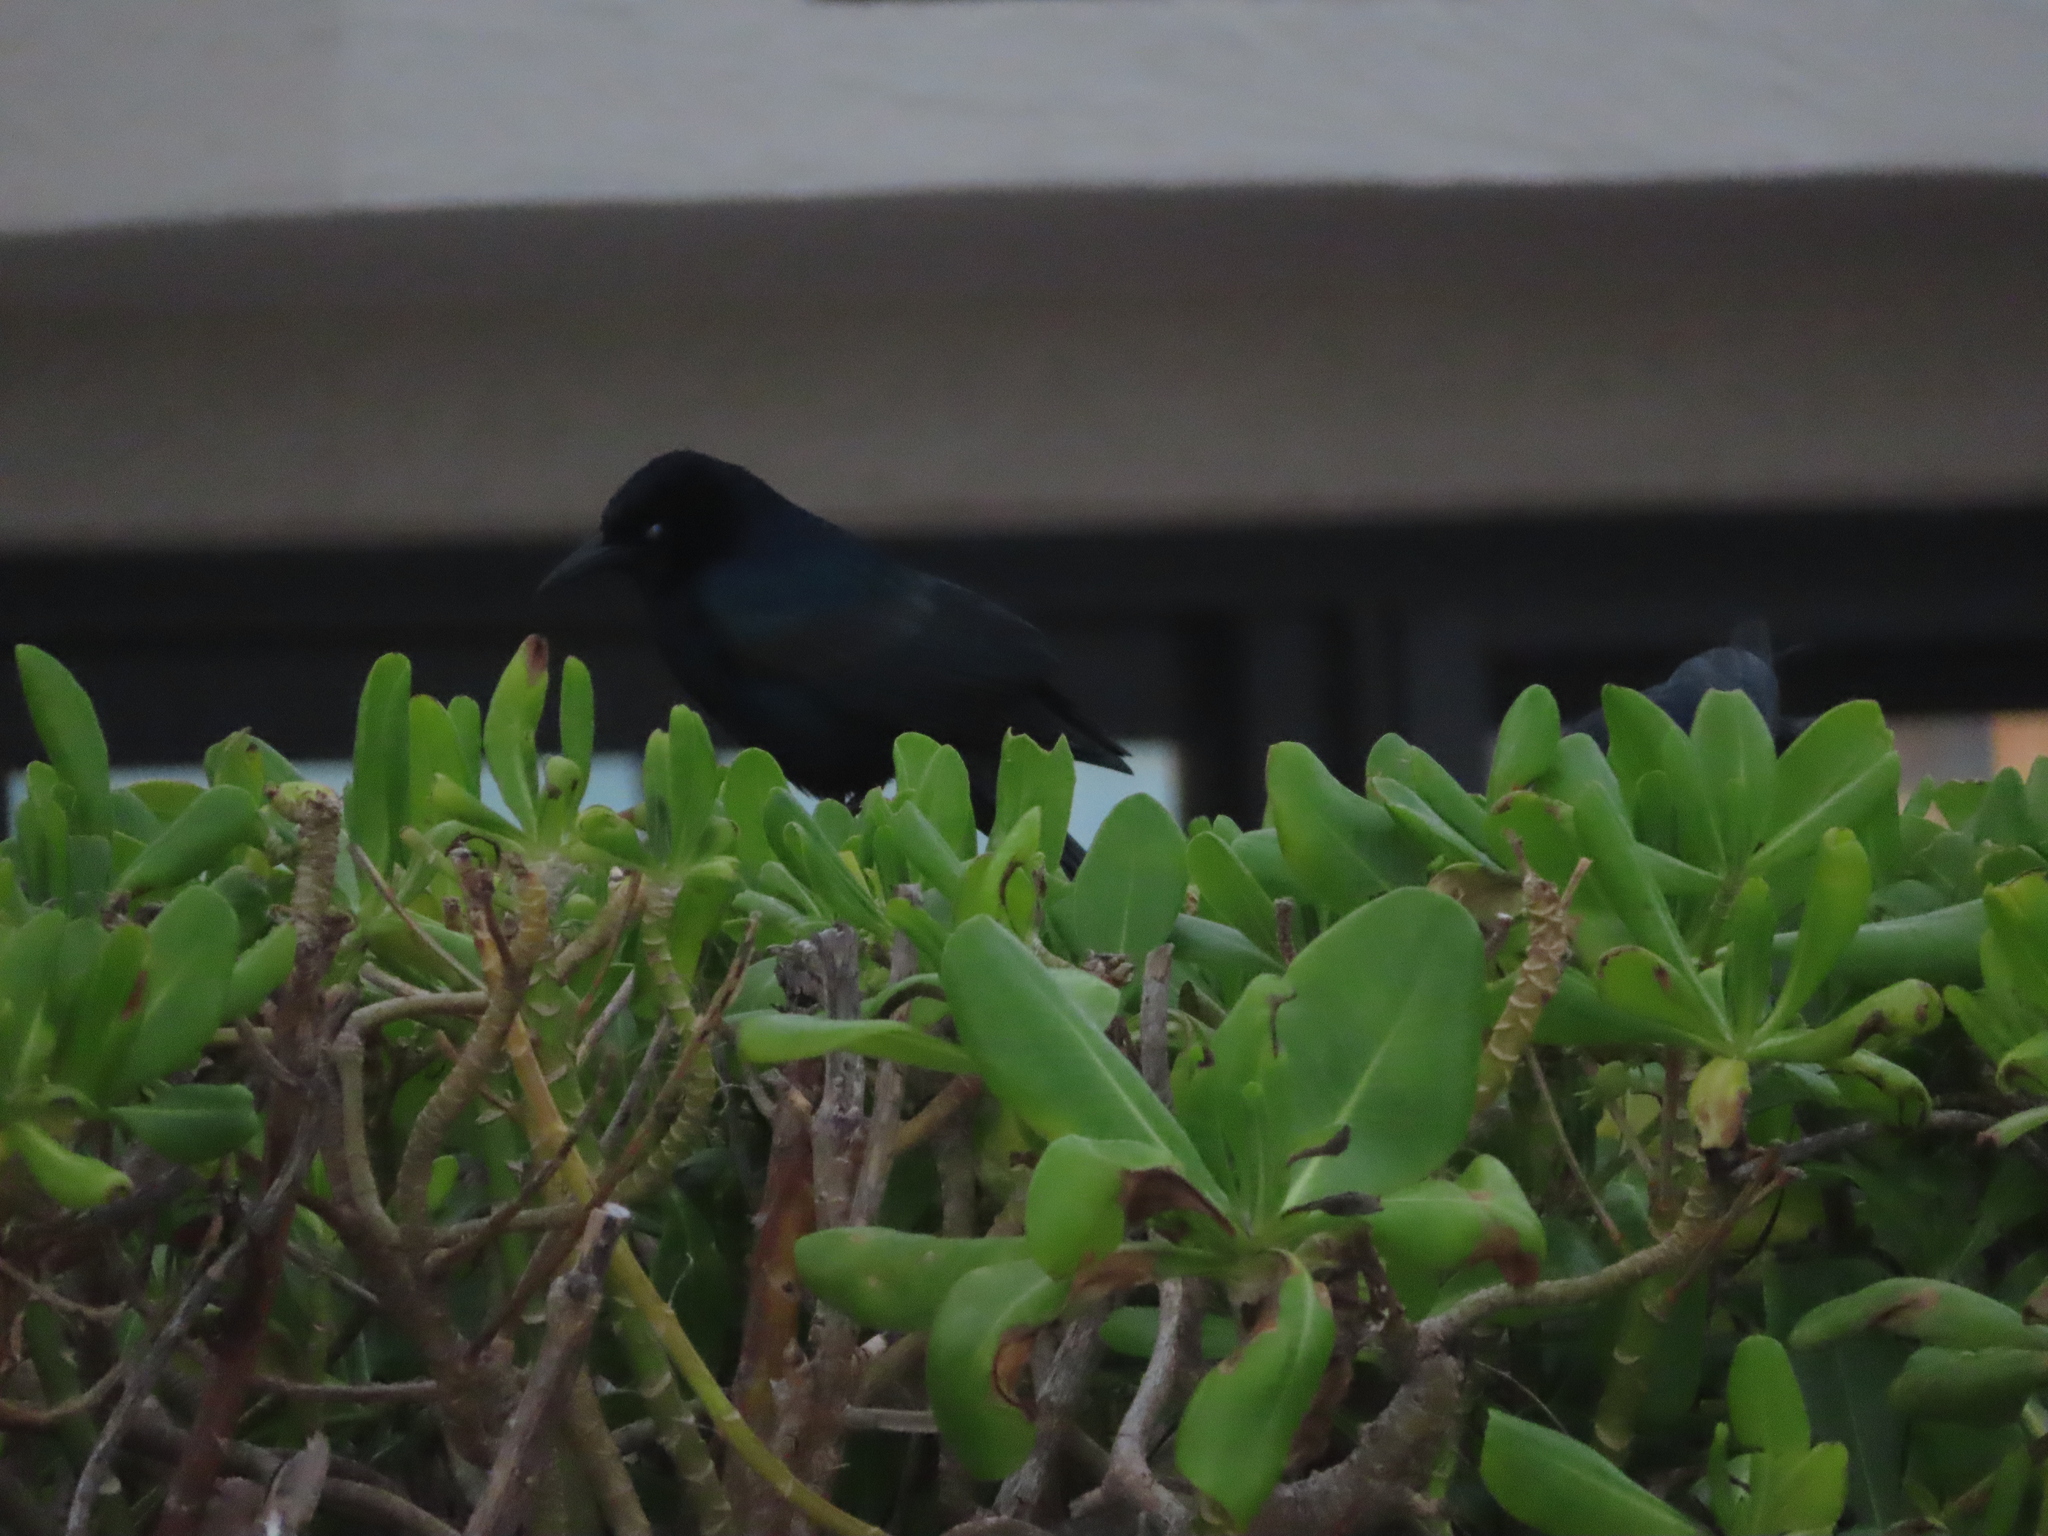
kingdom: Animalia
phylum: Chordata
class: Aves
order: Passeriformes
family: Icteridae
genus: Quiscalus
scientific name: Quiscalus major
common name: Boat-tailed grackle
